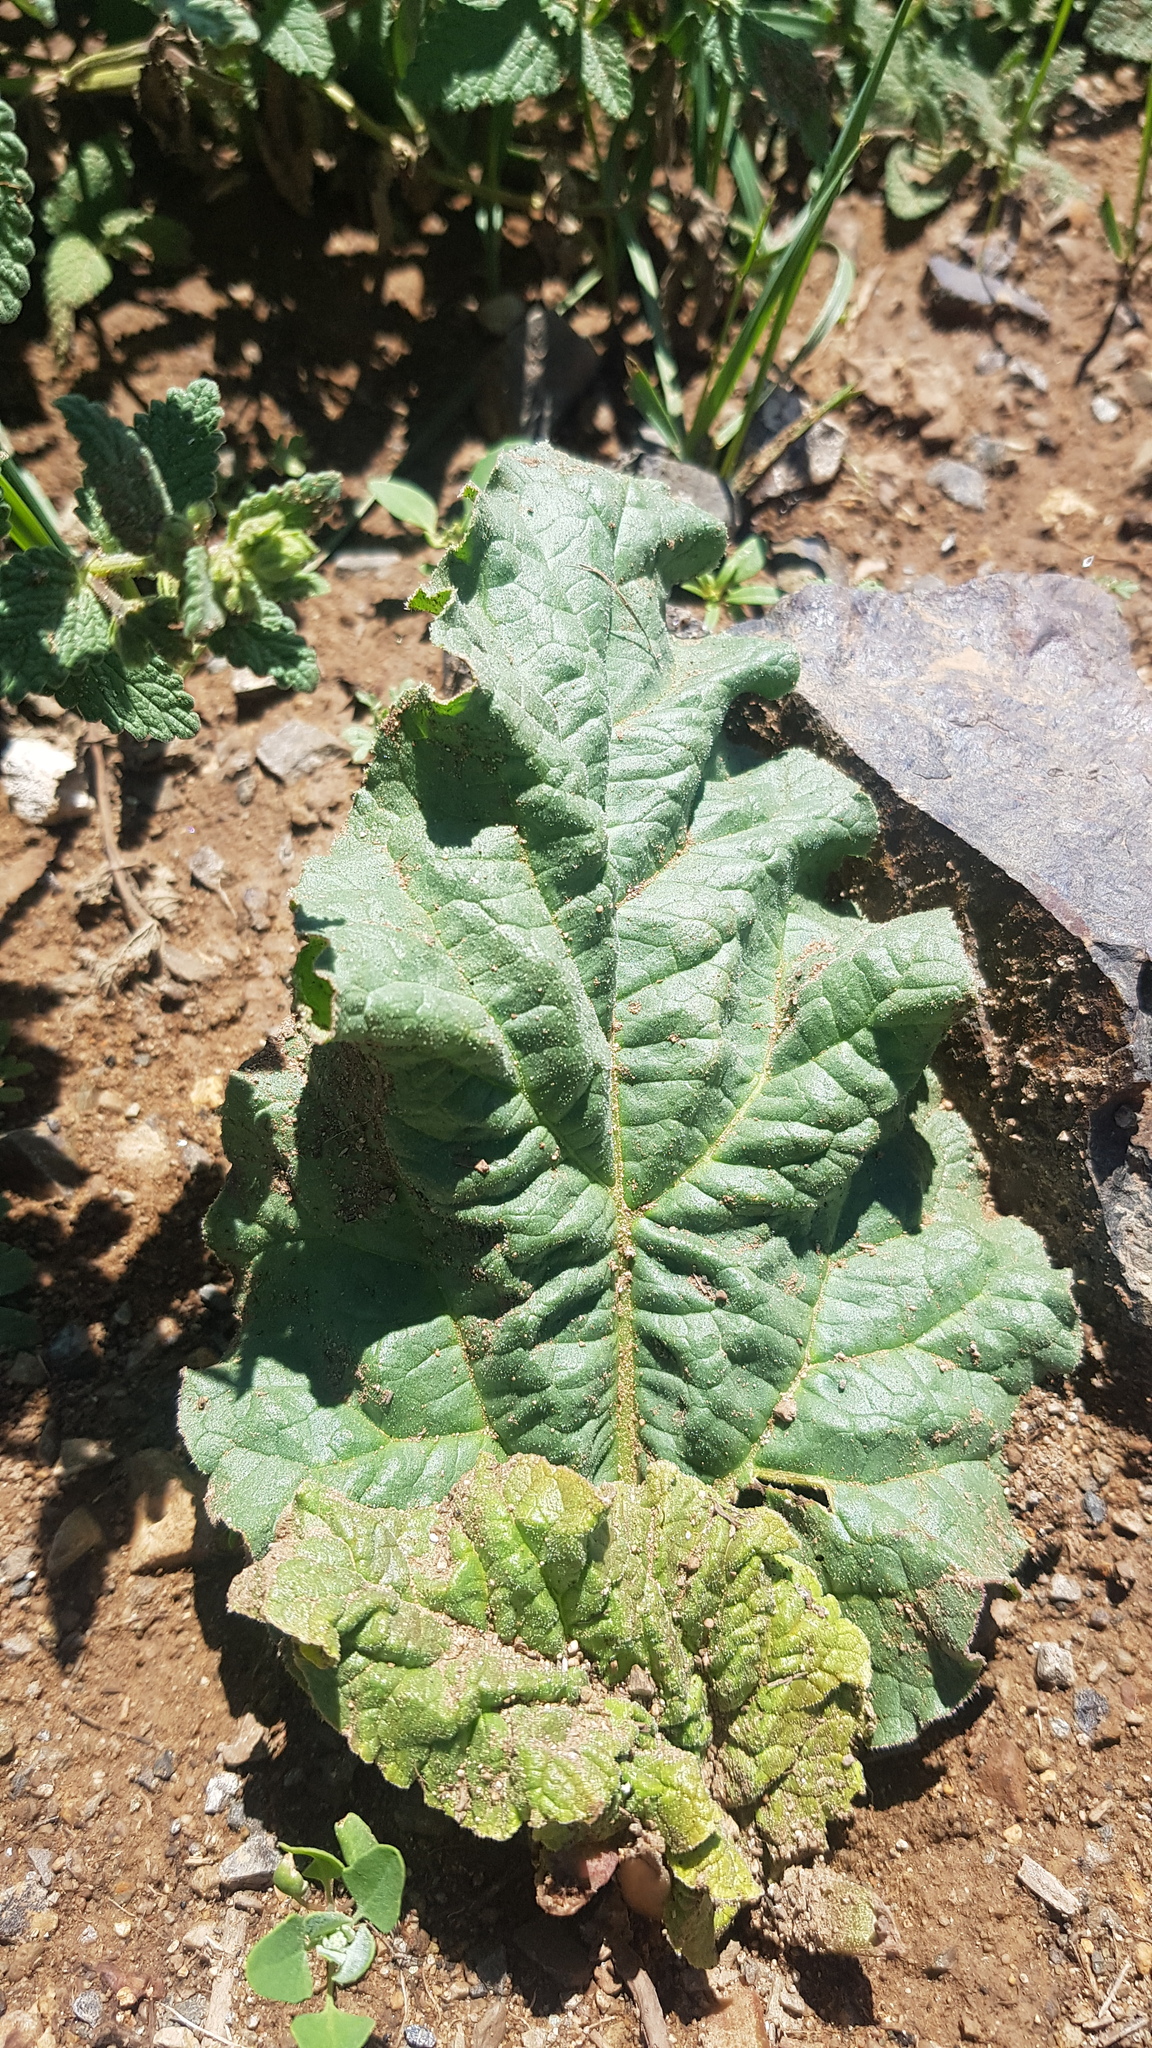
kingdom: Plantae
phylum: Tracheophyta
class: Magnoliopsida
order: Caryophyllales
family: Polygonaceae
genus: Rheum
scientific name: Rheum rhabarbarum
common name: Garden rhubarb
